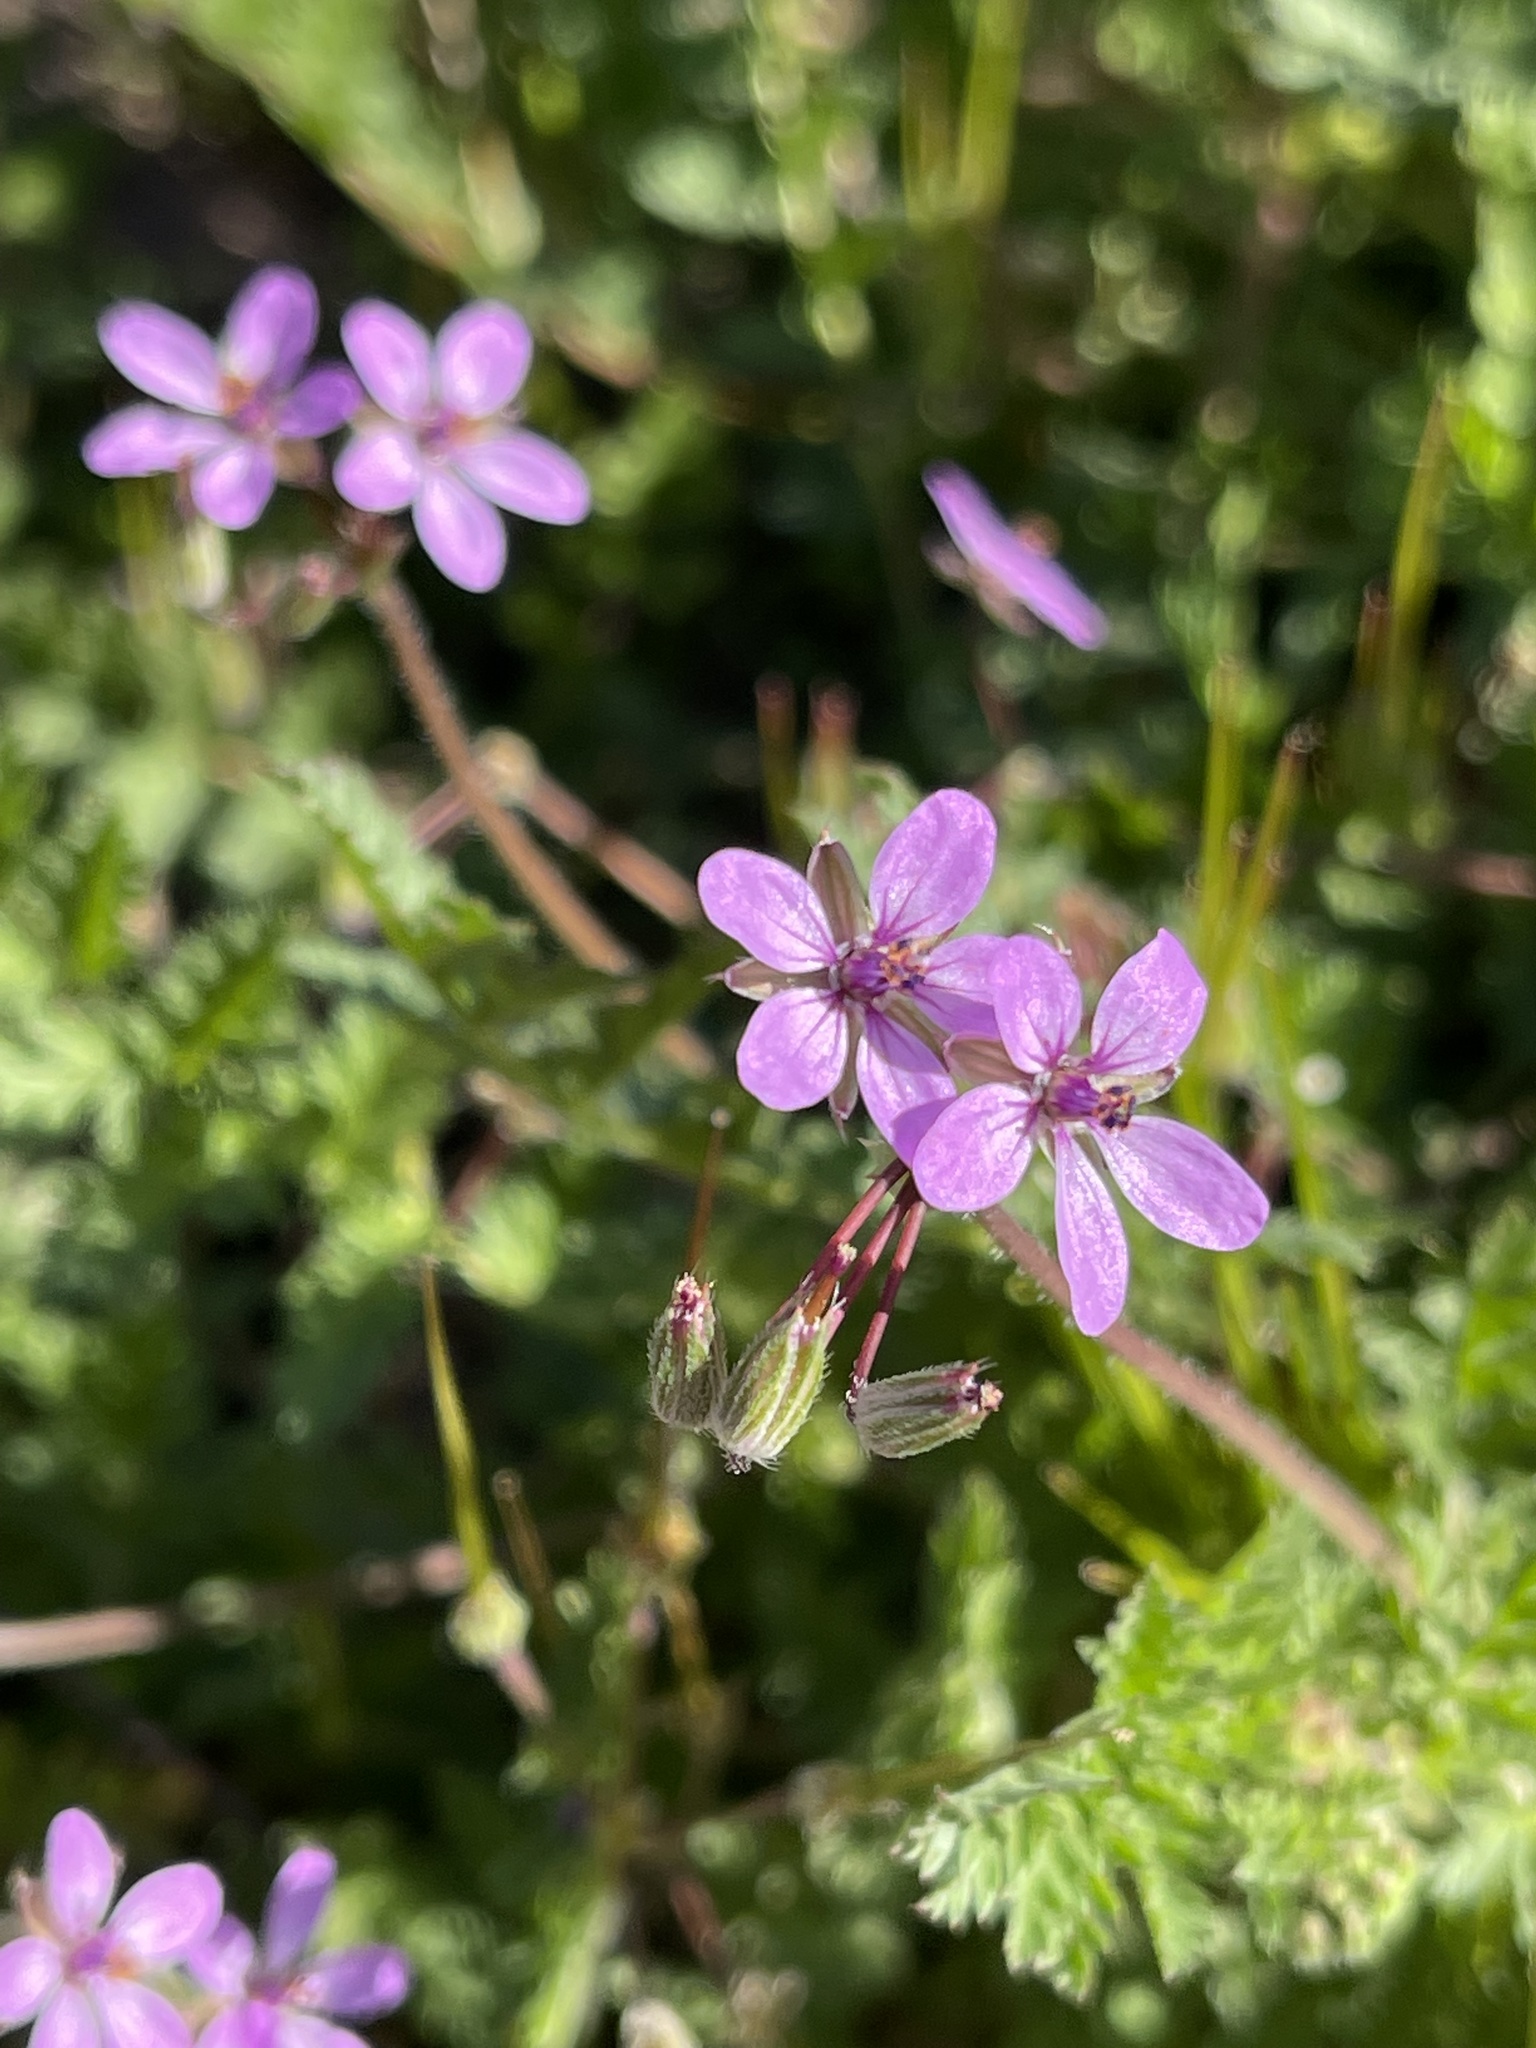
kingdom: Plantae
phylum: Tracheophyta
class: Magnoliopsida
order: Geraniales
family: Geraniaceae
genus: Erodium
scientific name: Erodium cicutarium
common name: Common stork's-bill
